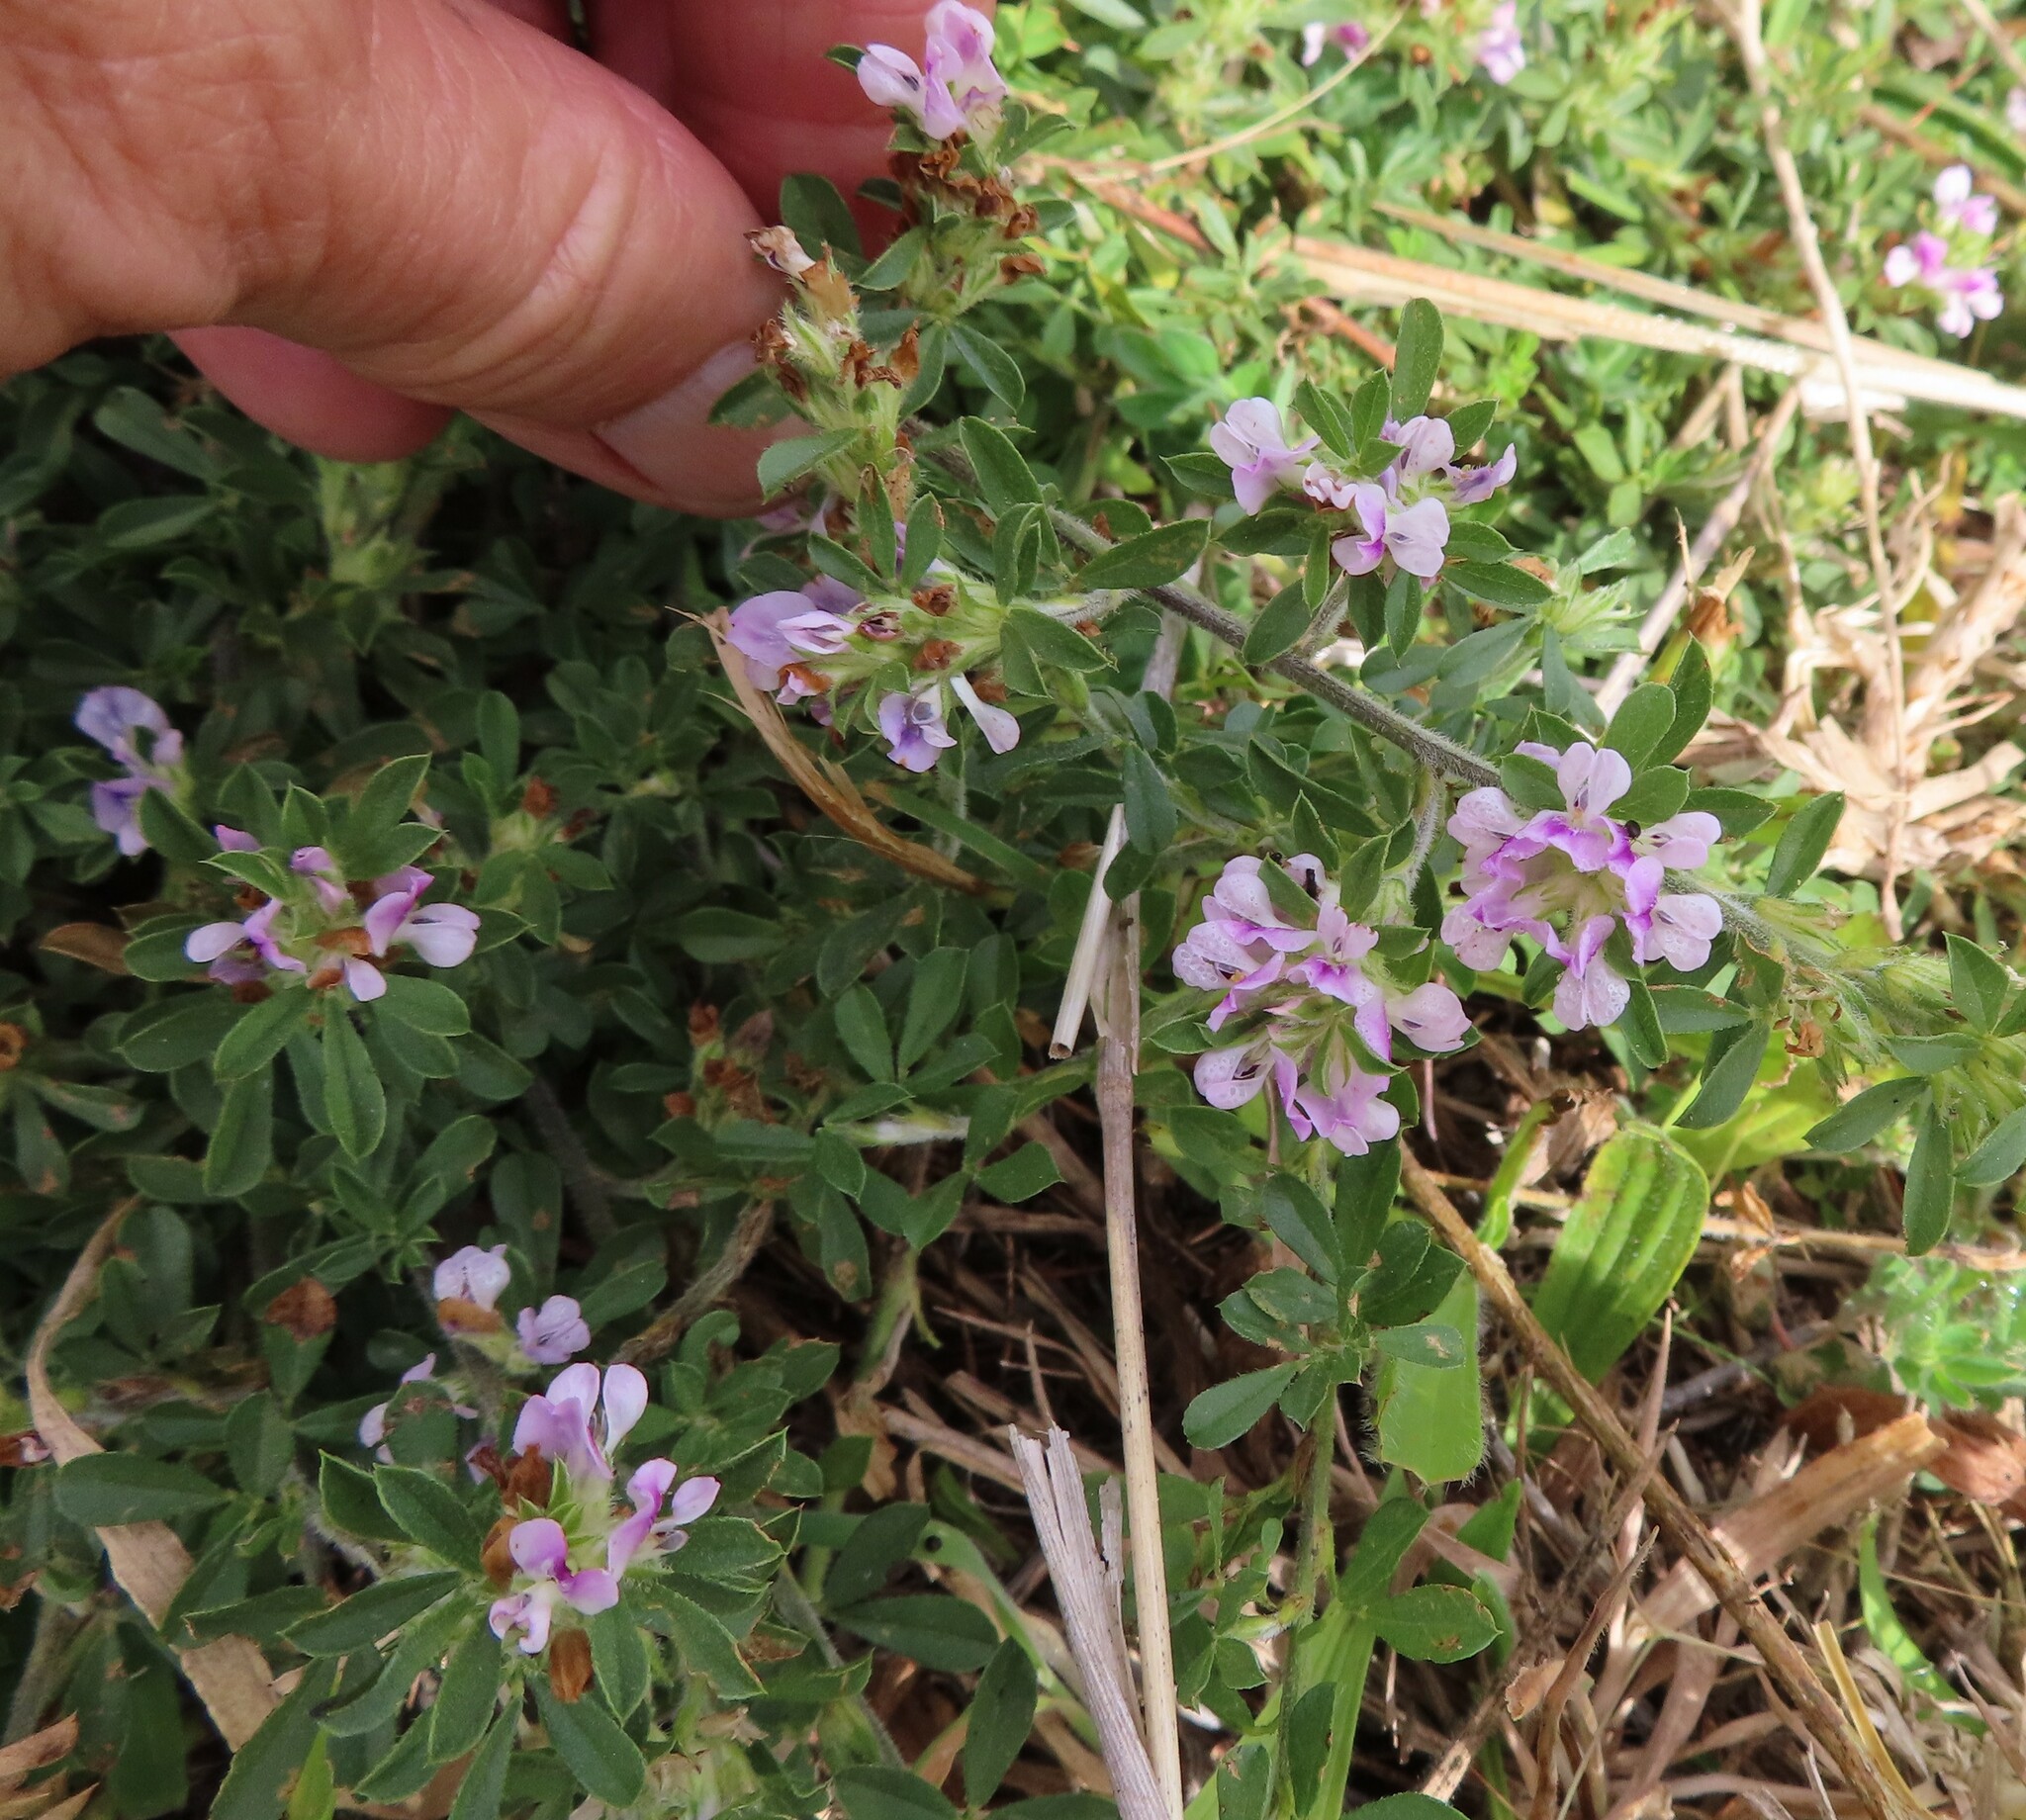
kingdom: Plantae
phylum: Tracheophyta
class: Magnoliopsida
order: Fabales
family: Fabaceae
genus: Psoralea
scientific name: Psoralea
